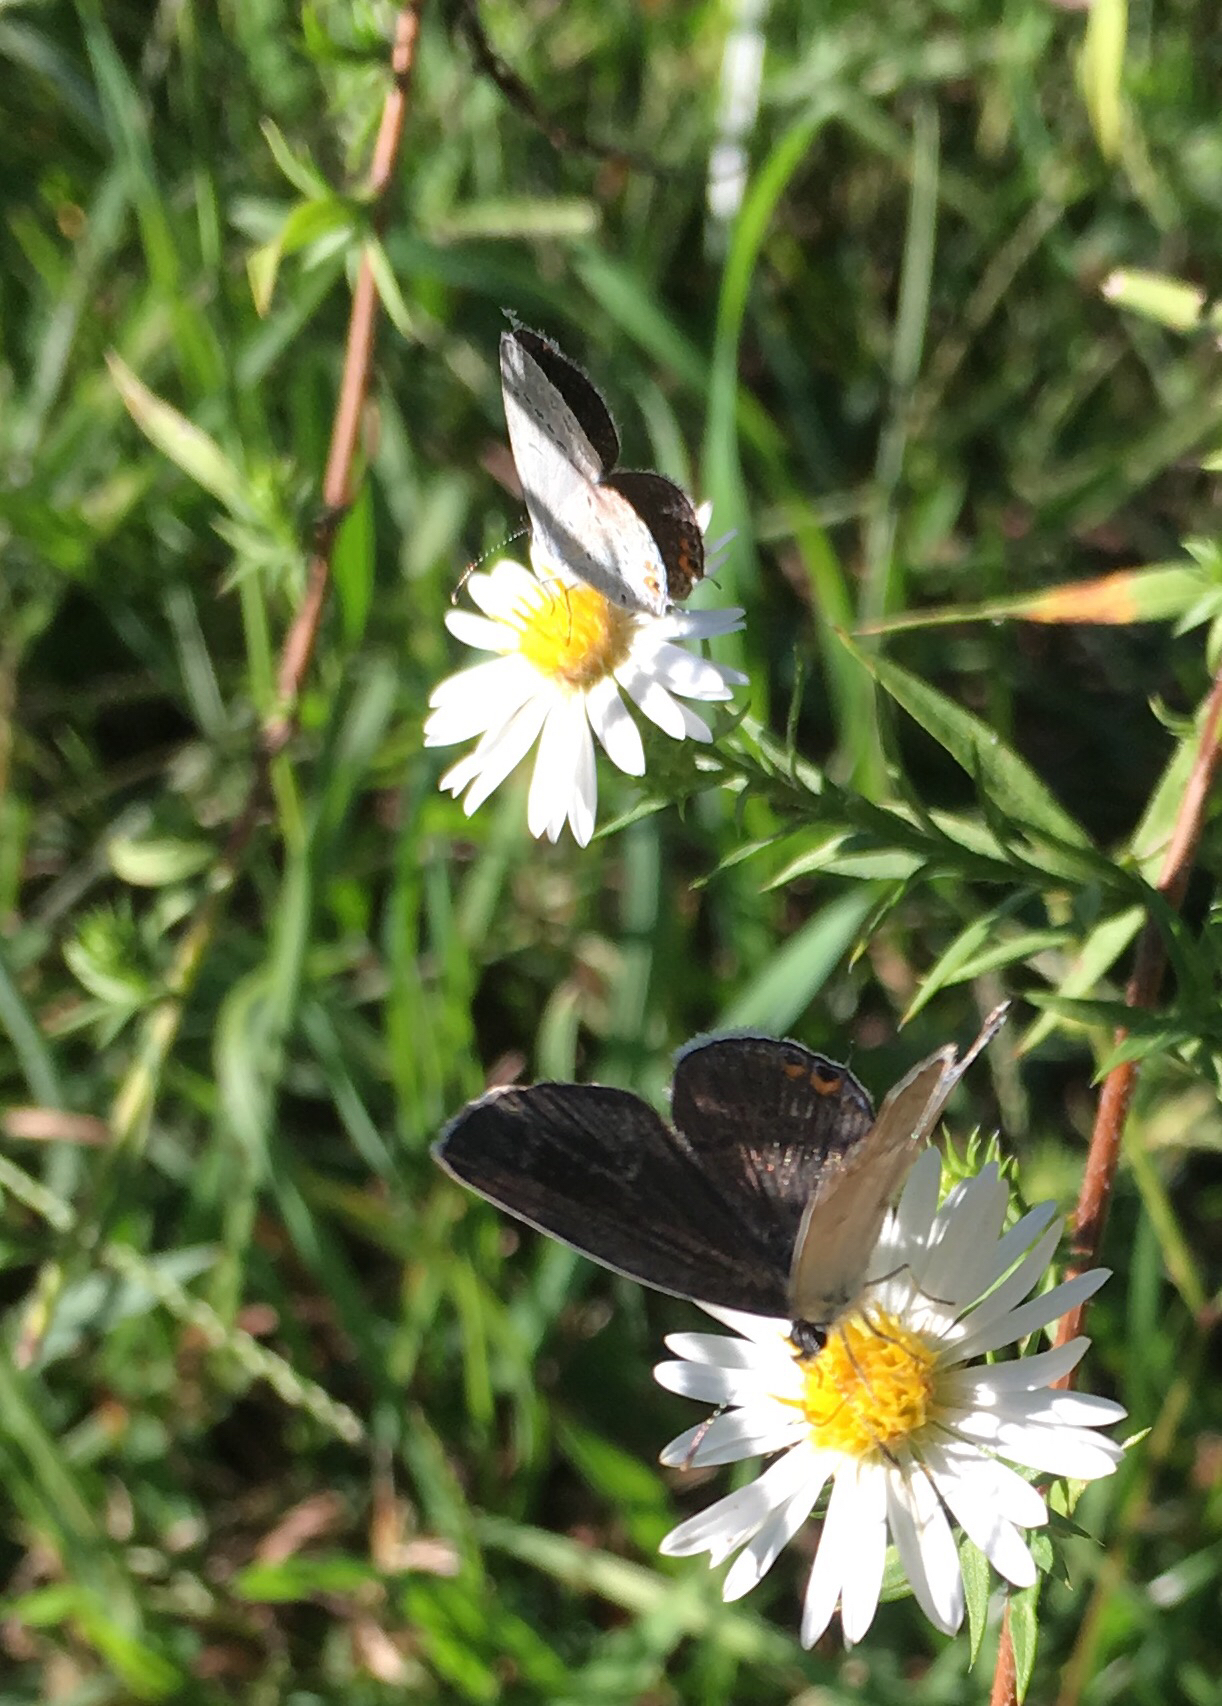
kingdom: Animalia
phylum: Arthropoda
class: Insecta
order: Lepidoptera
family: Lycaenidae
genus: Elkalyce
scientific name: Elkalyce comyntas
